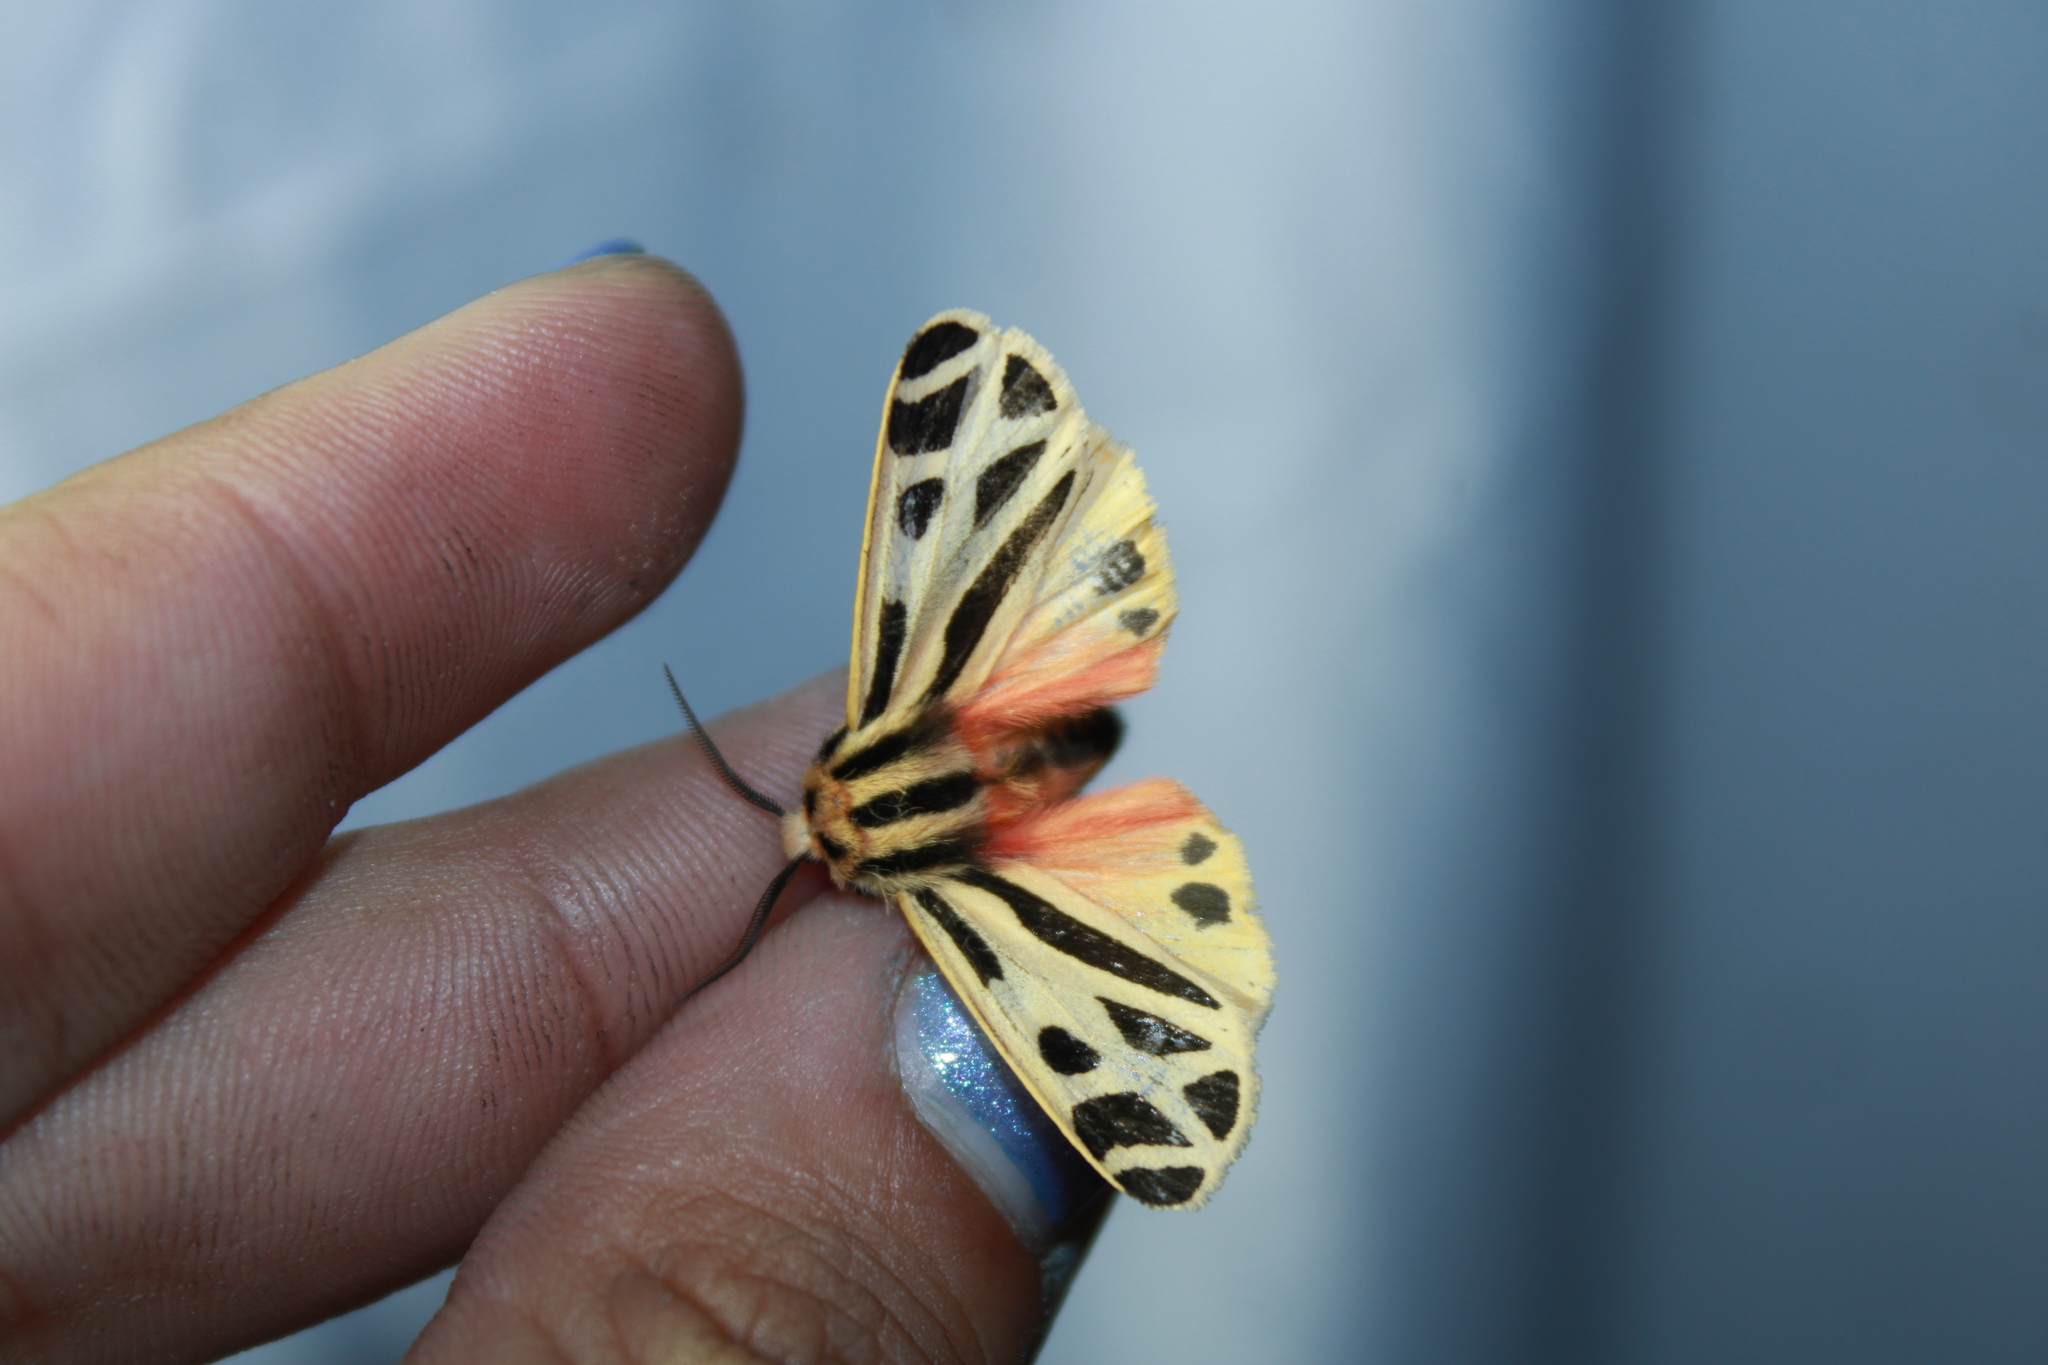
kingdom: Animalia
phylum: Arthropoda
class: Insecta
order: Lepidoptera
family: Erebidae
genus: Apantesis
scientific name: Apantesis phalerata
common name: Harnessed tiger moth
